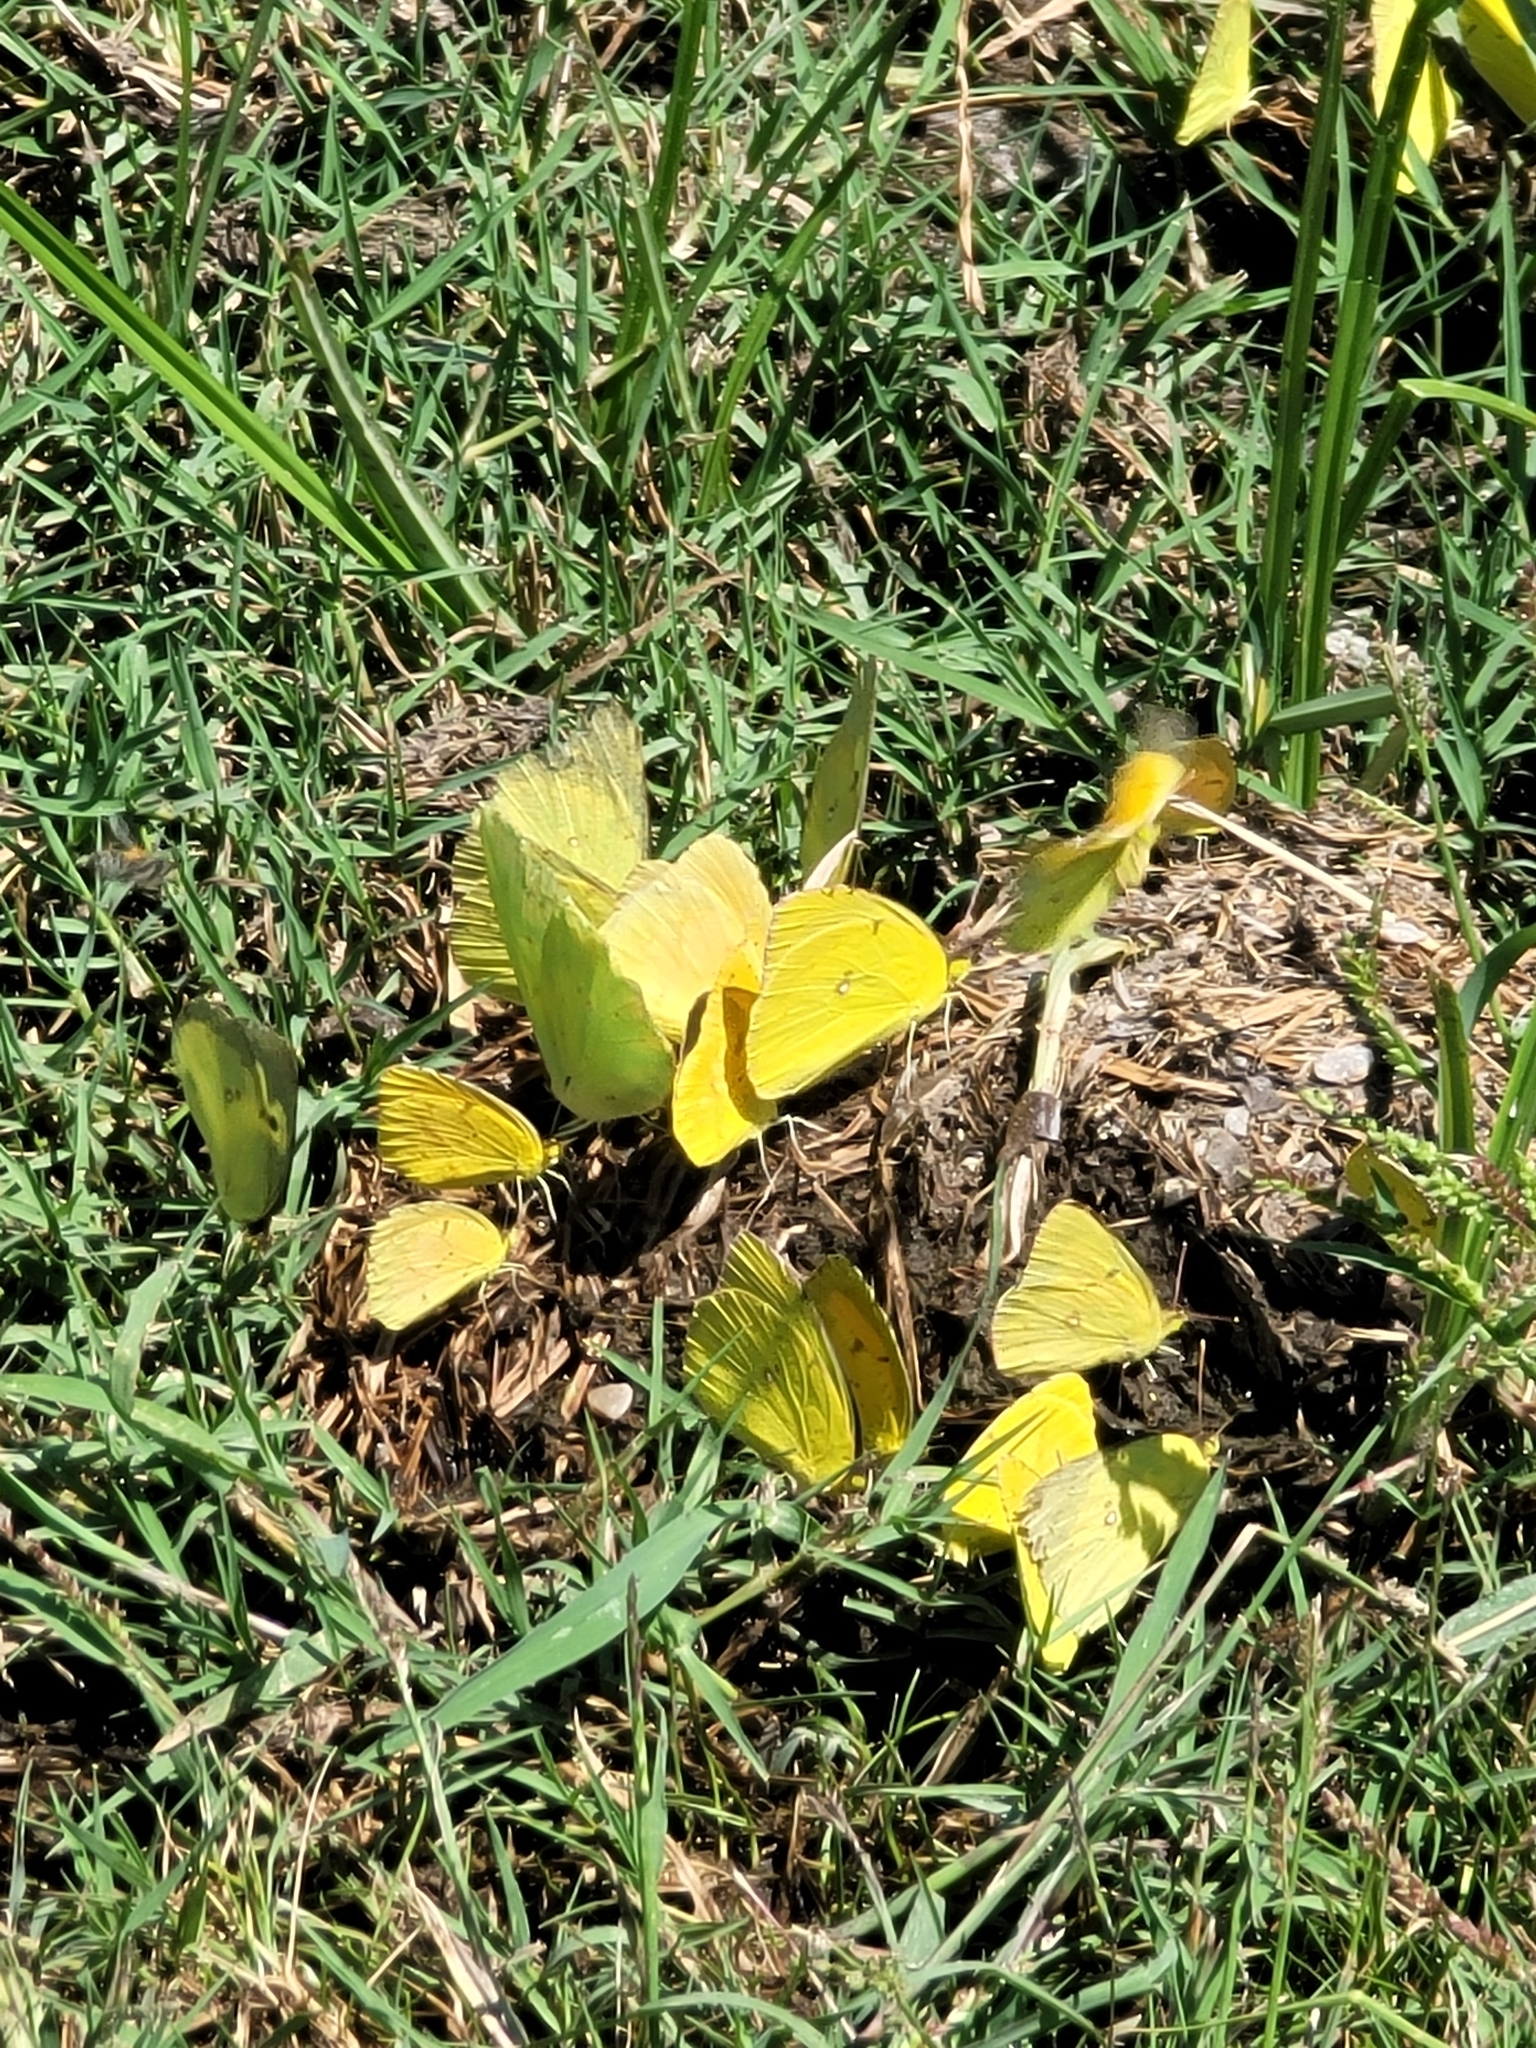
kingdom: Animalia
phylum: Arthropoda
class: Insecta
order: Lepidoptera
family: Pieridae
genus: Phoebis
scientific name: Phoebis sennae
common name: Cloudless sulphur
